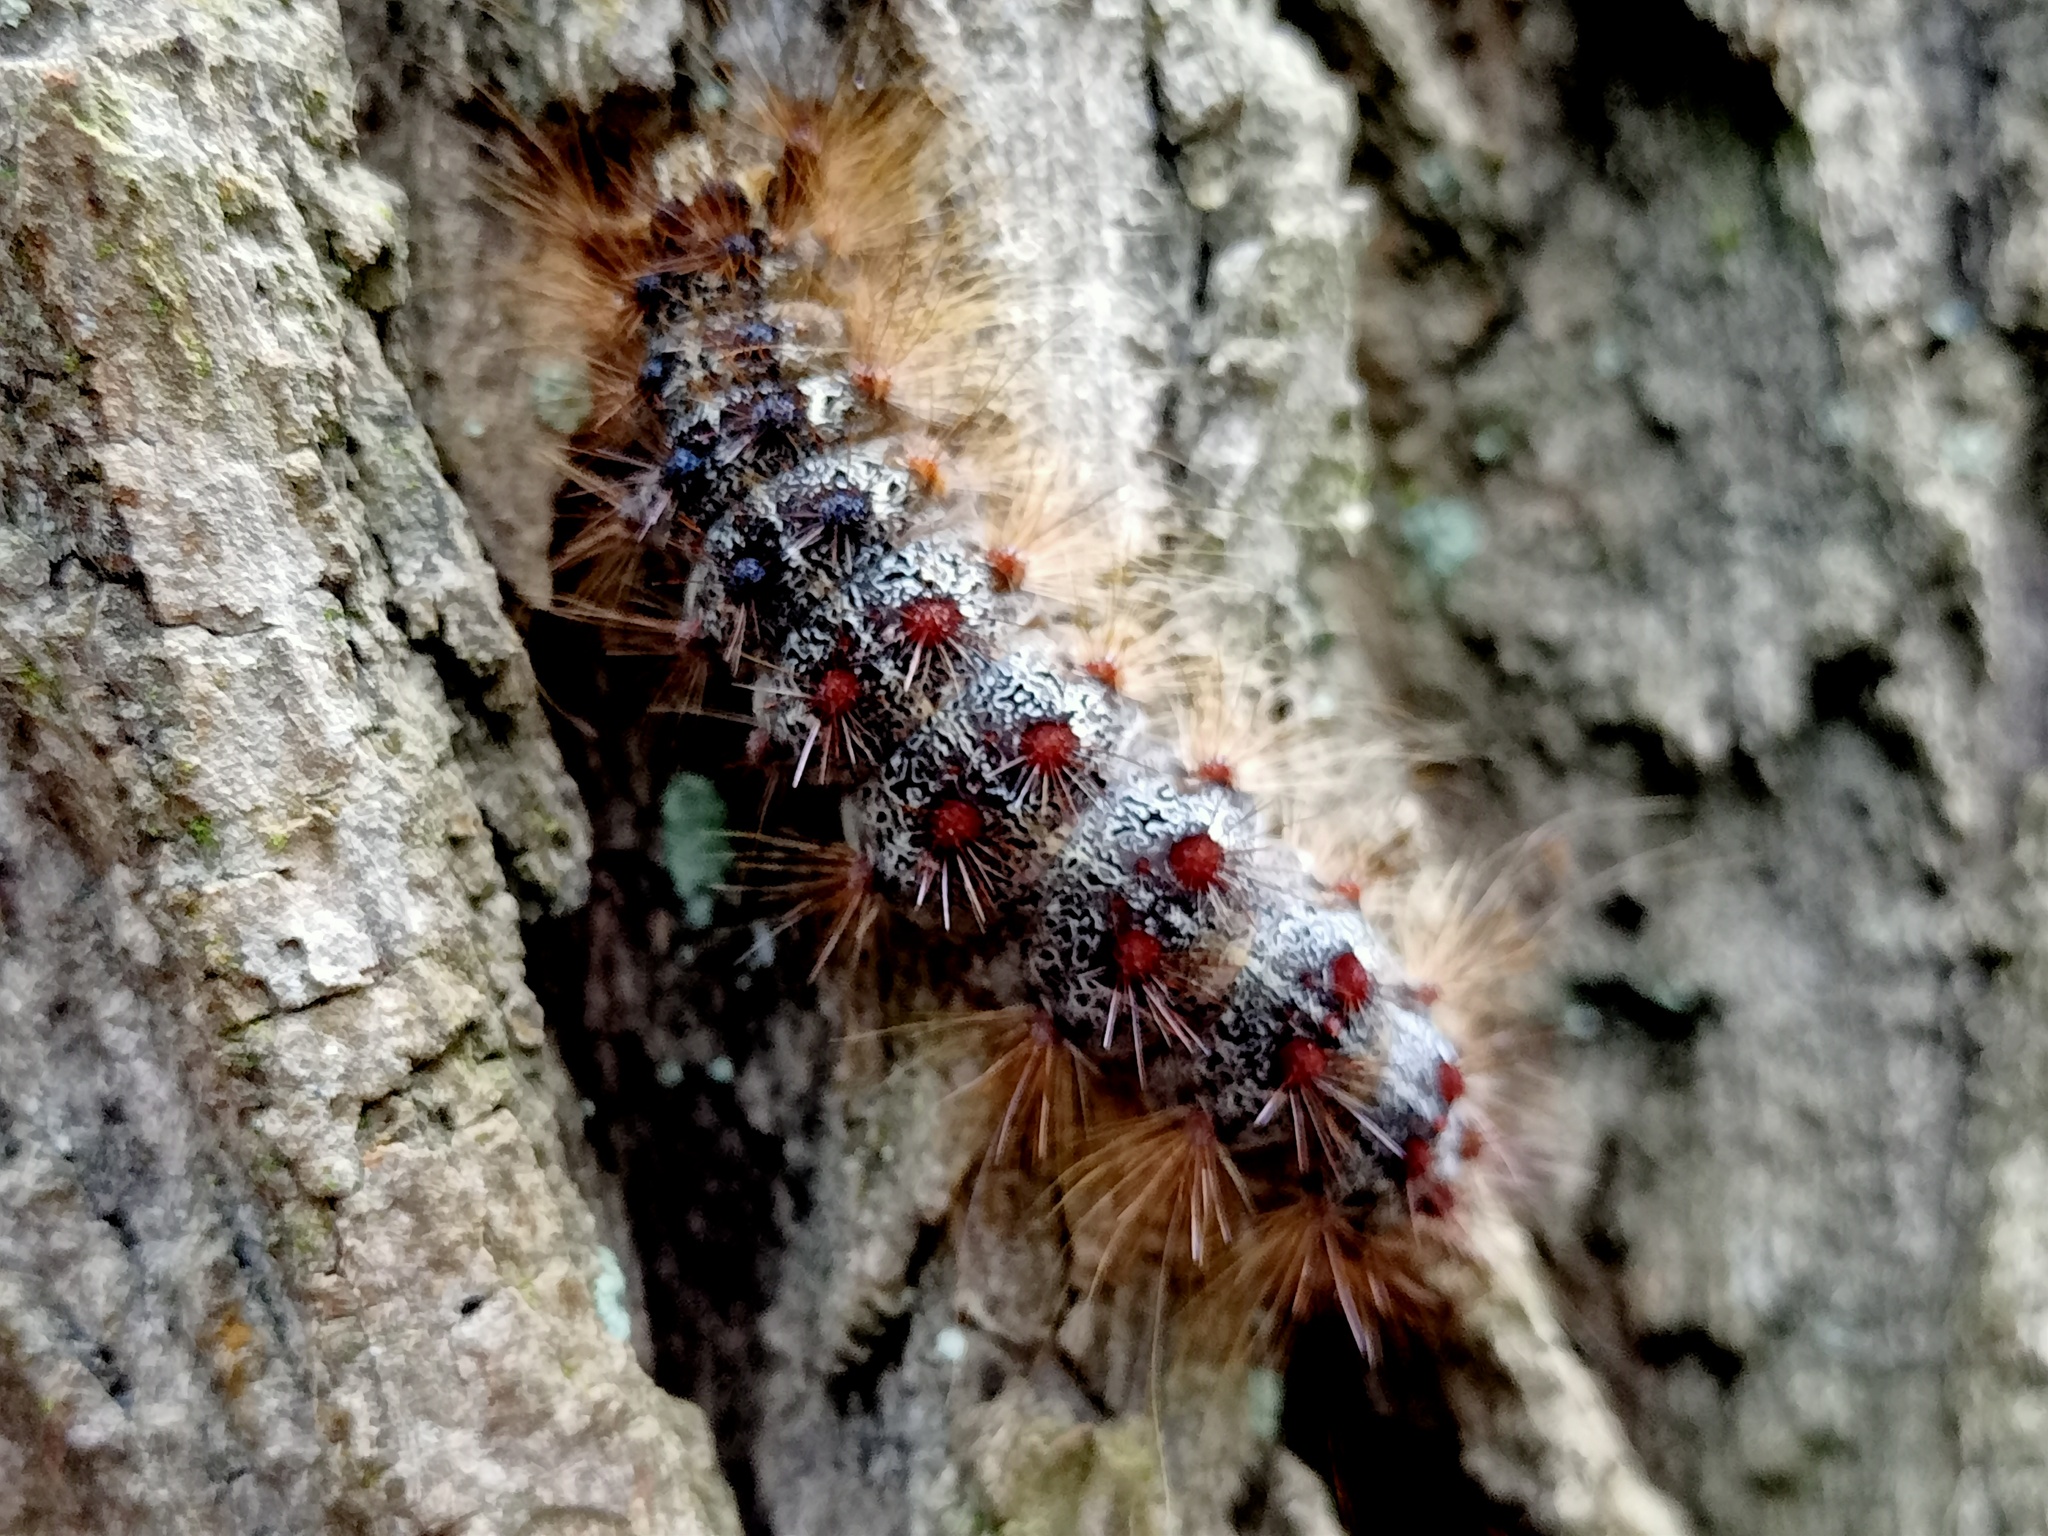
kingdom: Animalia
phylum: Arthropoda
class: Insecta
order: Lepidoptera
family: Erebidae
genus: Lymantria
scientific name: Lymantria dispar
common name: Gypsy moth
